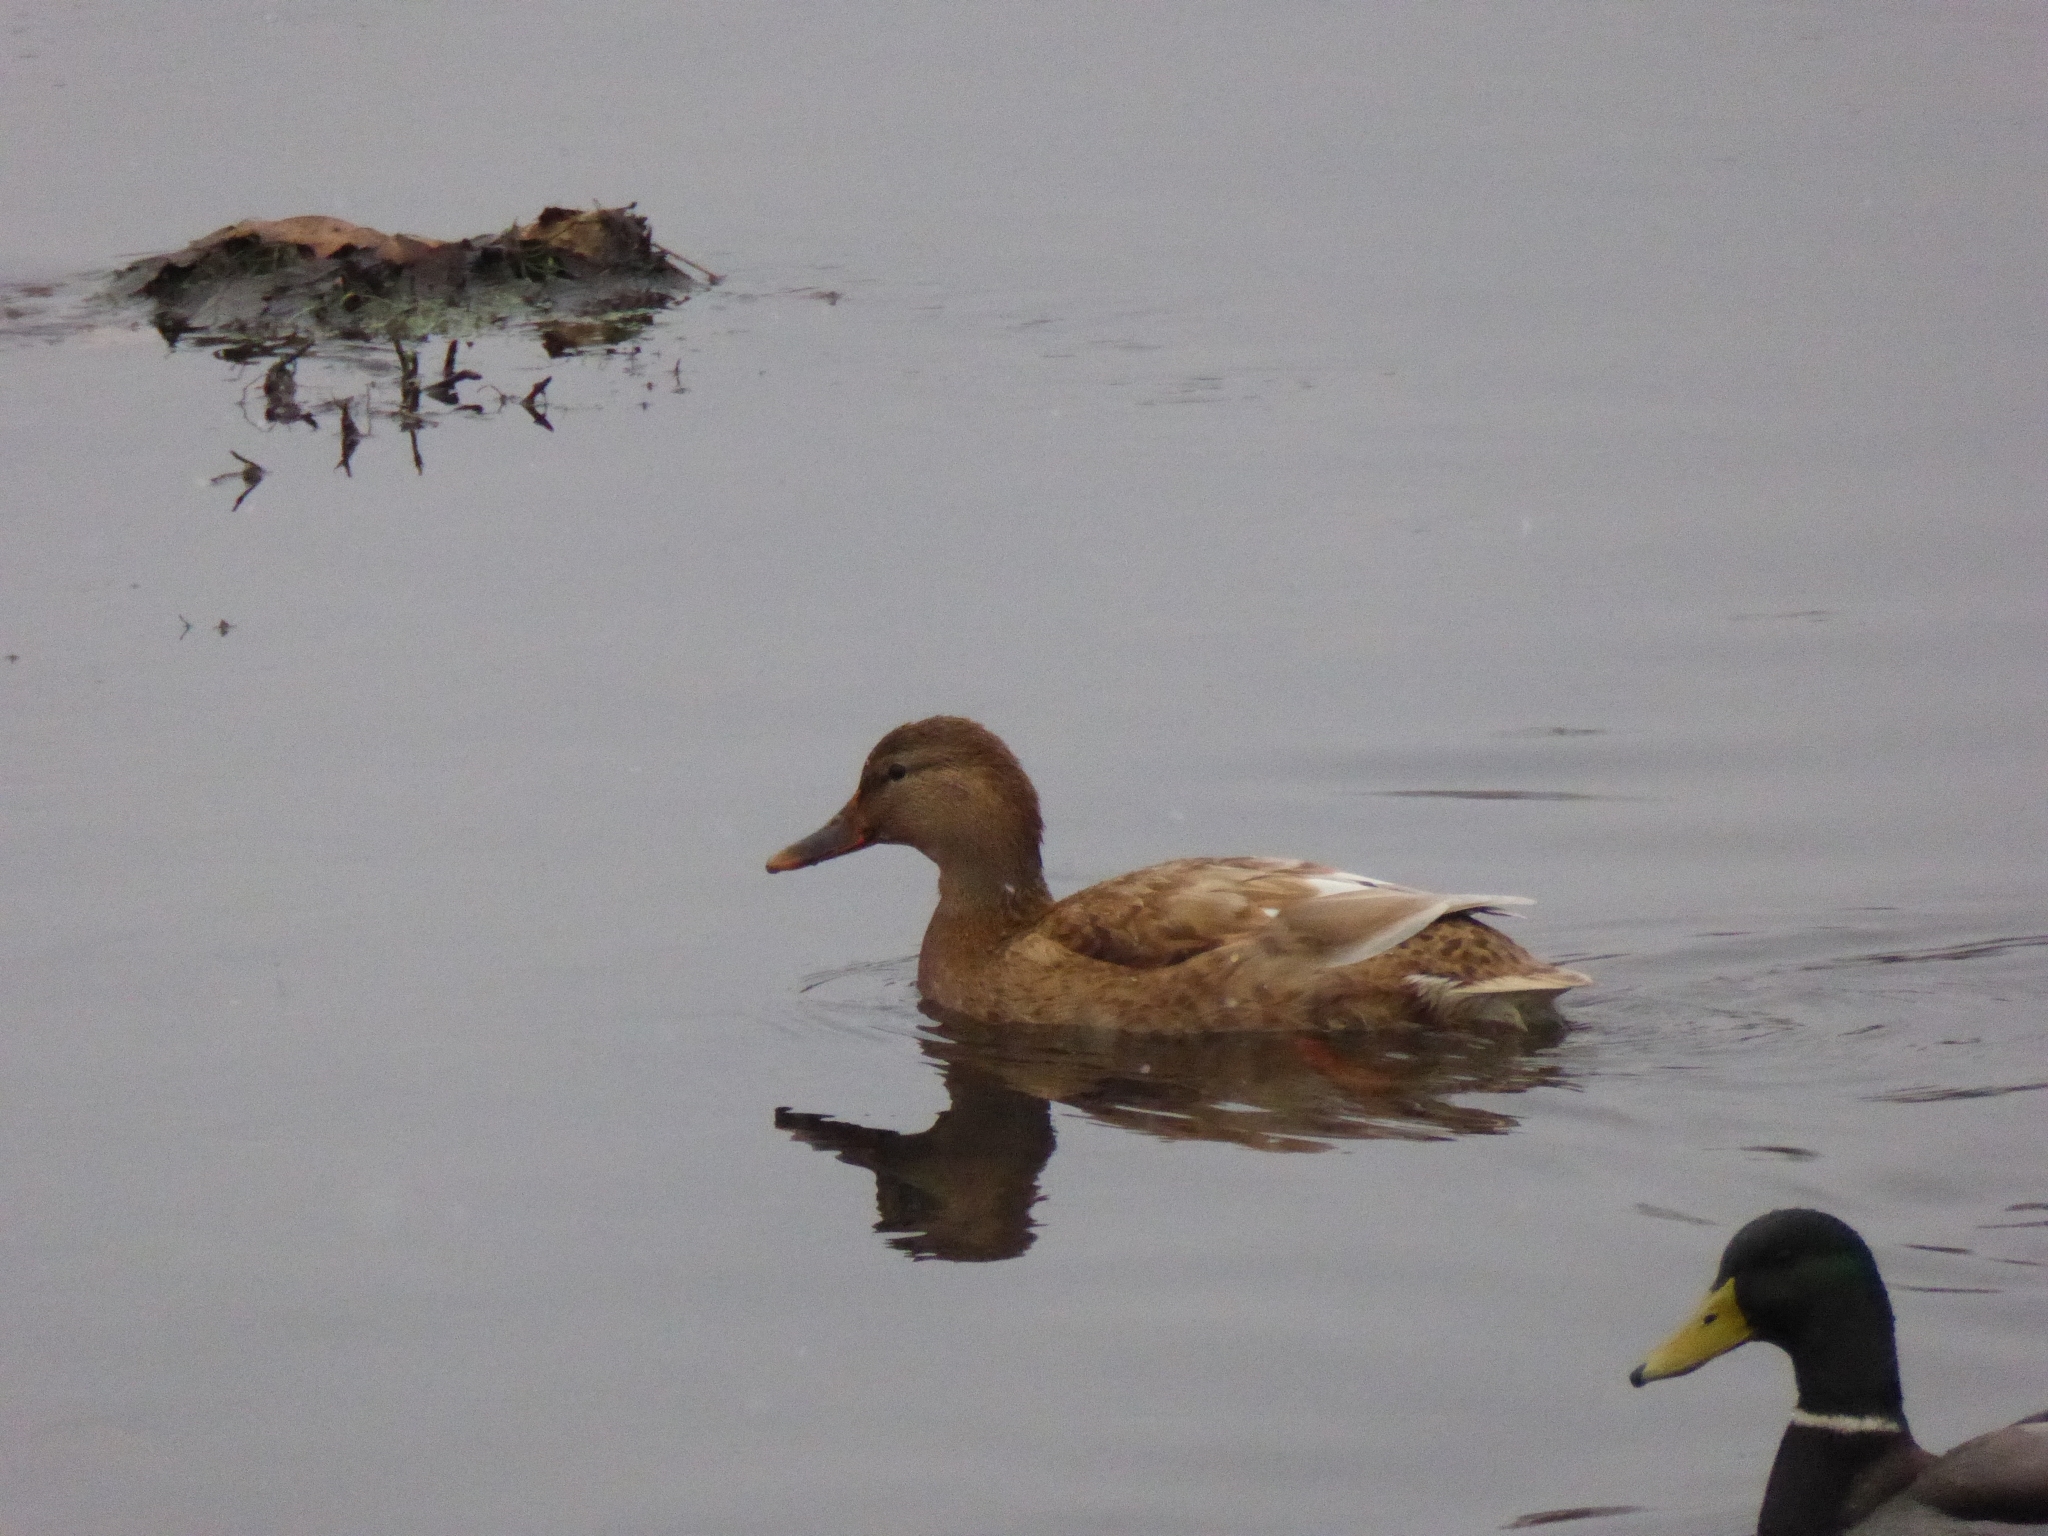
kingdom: Animalia
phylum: Chordata
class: Aves
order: Anseriformes
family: Anatidae
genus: Anas
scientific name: Anas platyrhynchos
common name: Mallard
